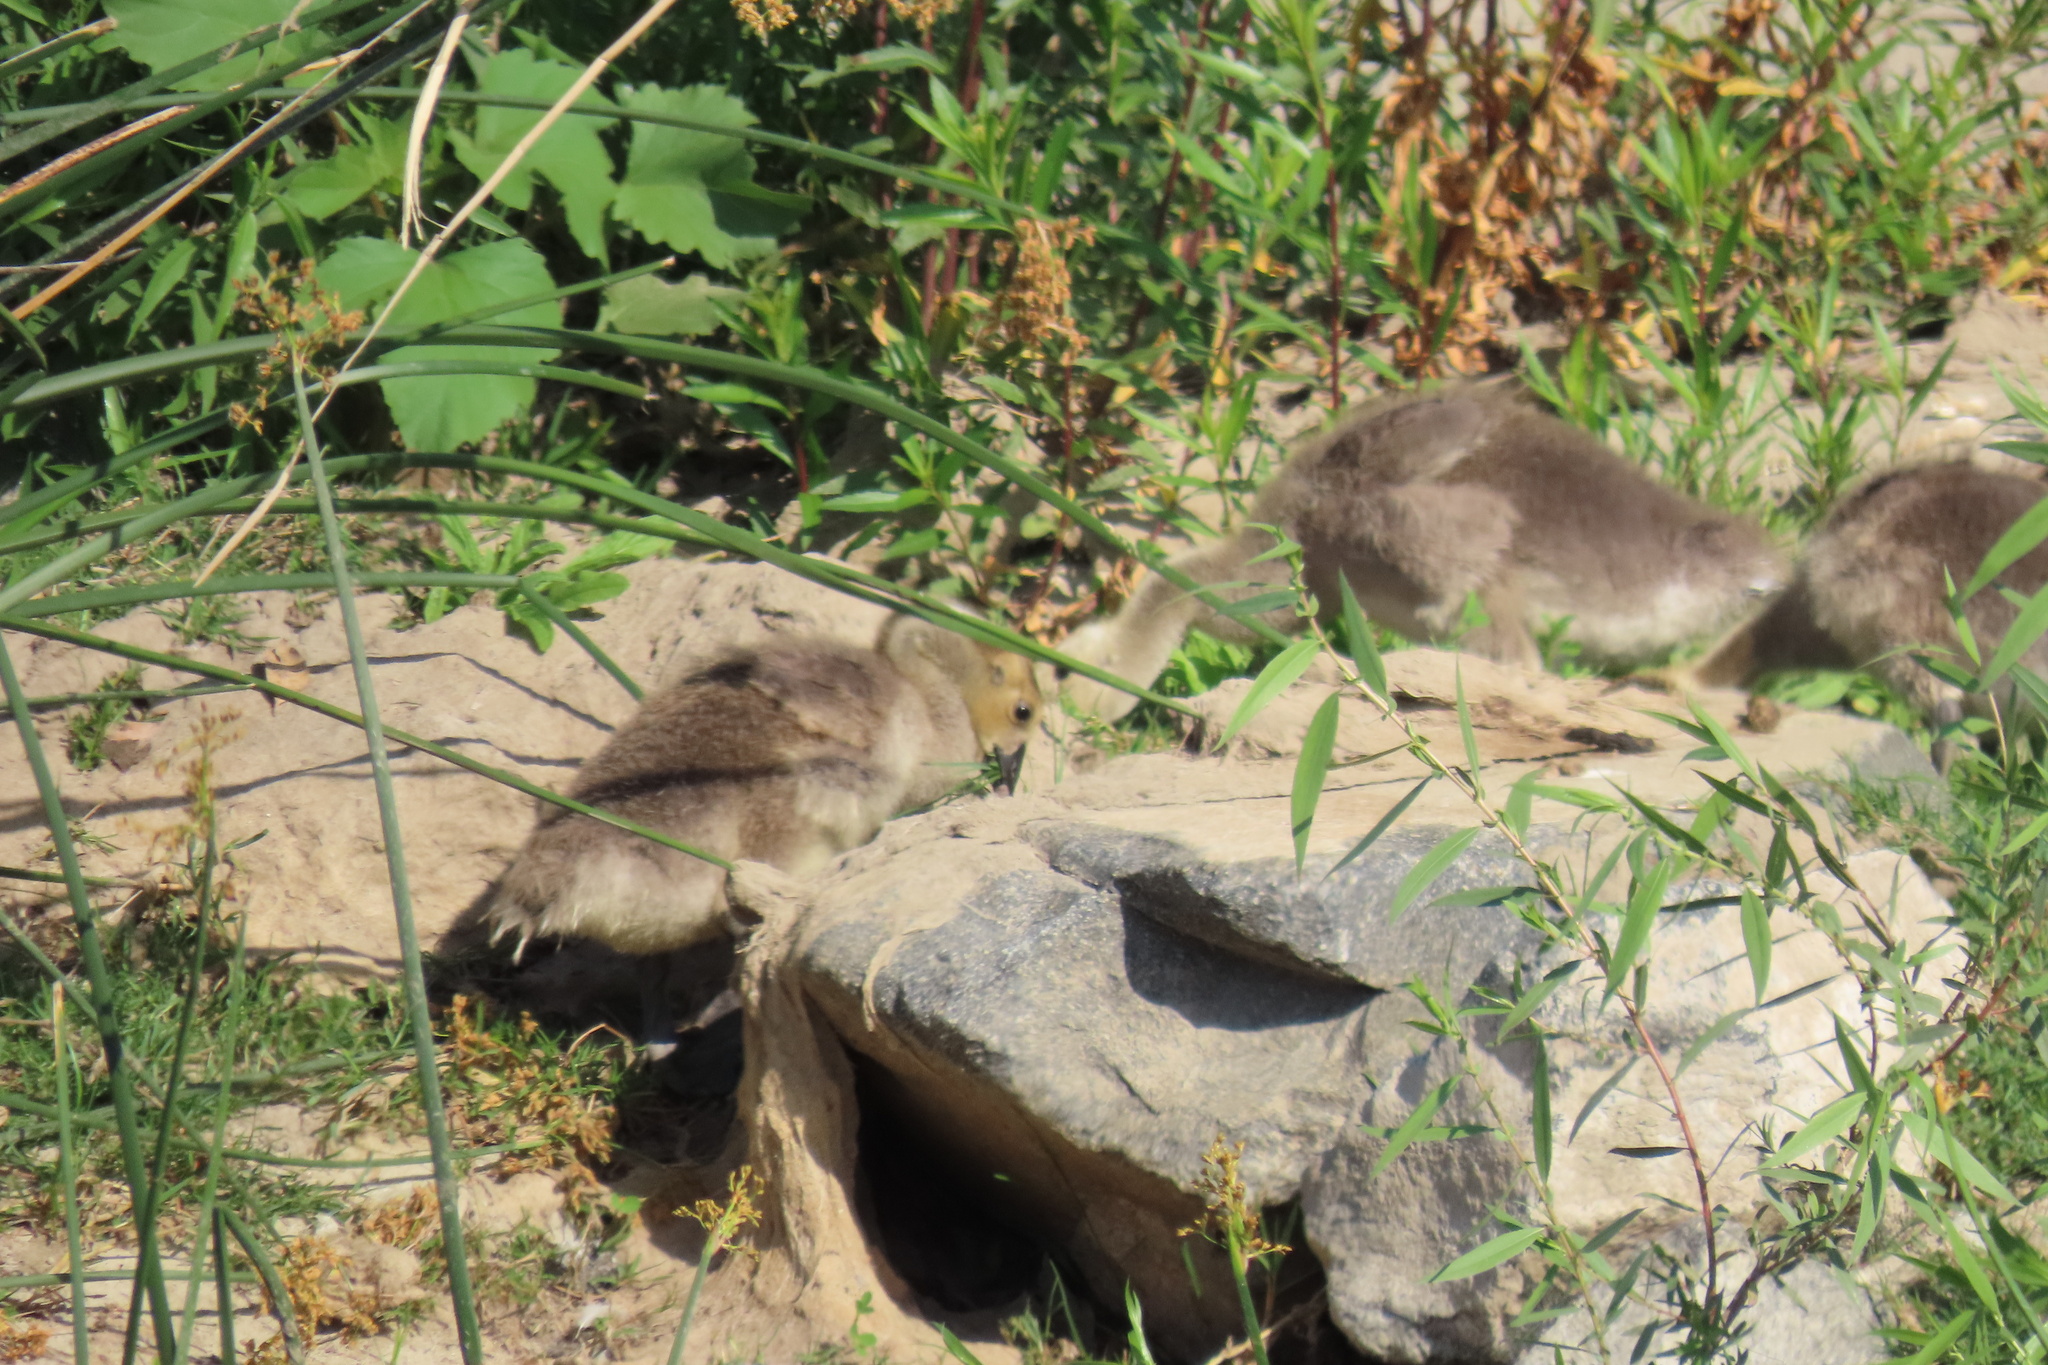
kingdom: Animalia
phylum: Chordata
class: Aves
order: Anseriformes
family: Anatidae
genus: Branta
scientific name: Branta canadensis
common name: Canada goose
